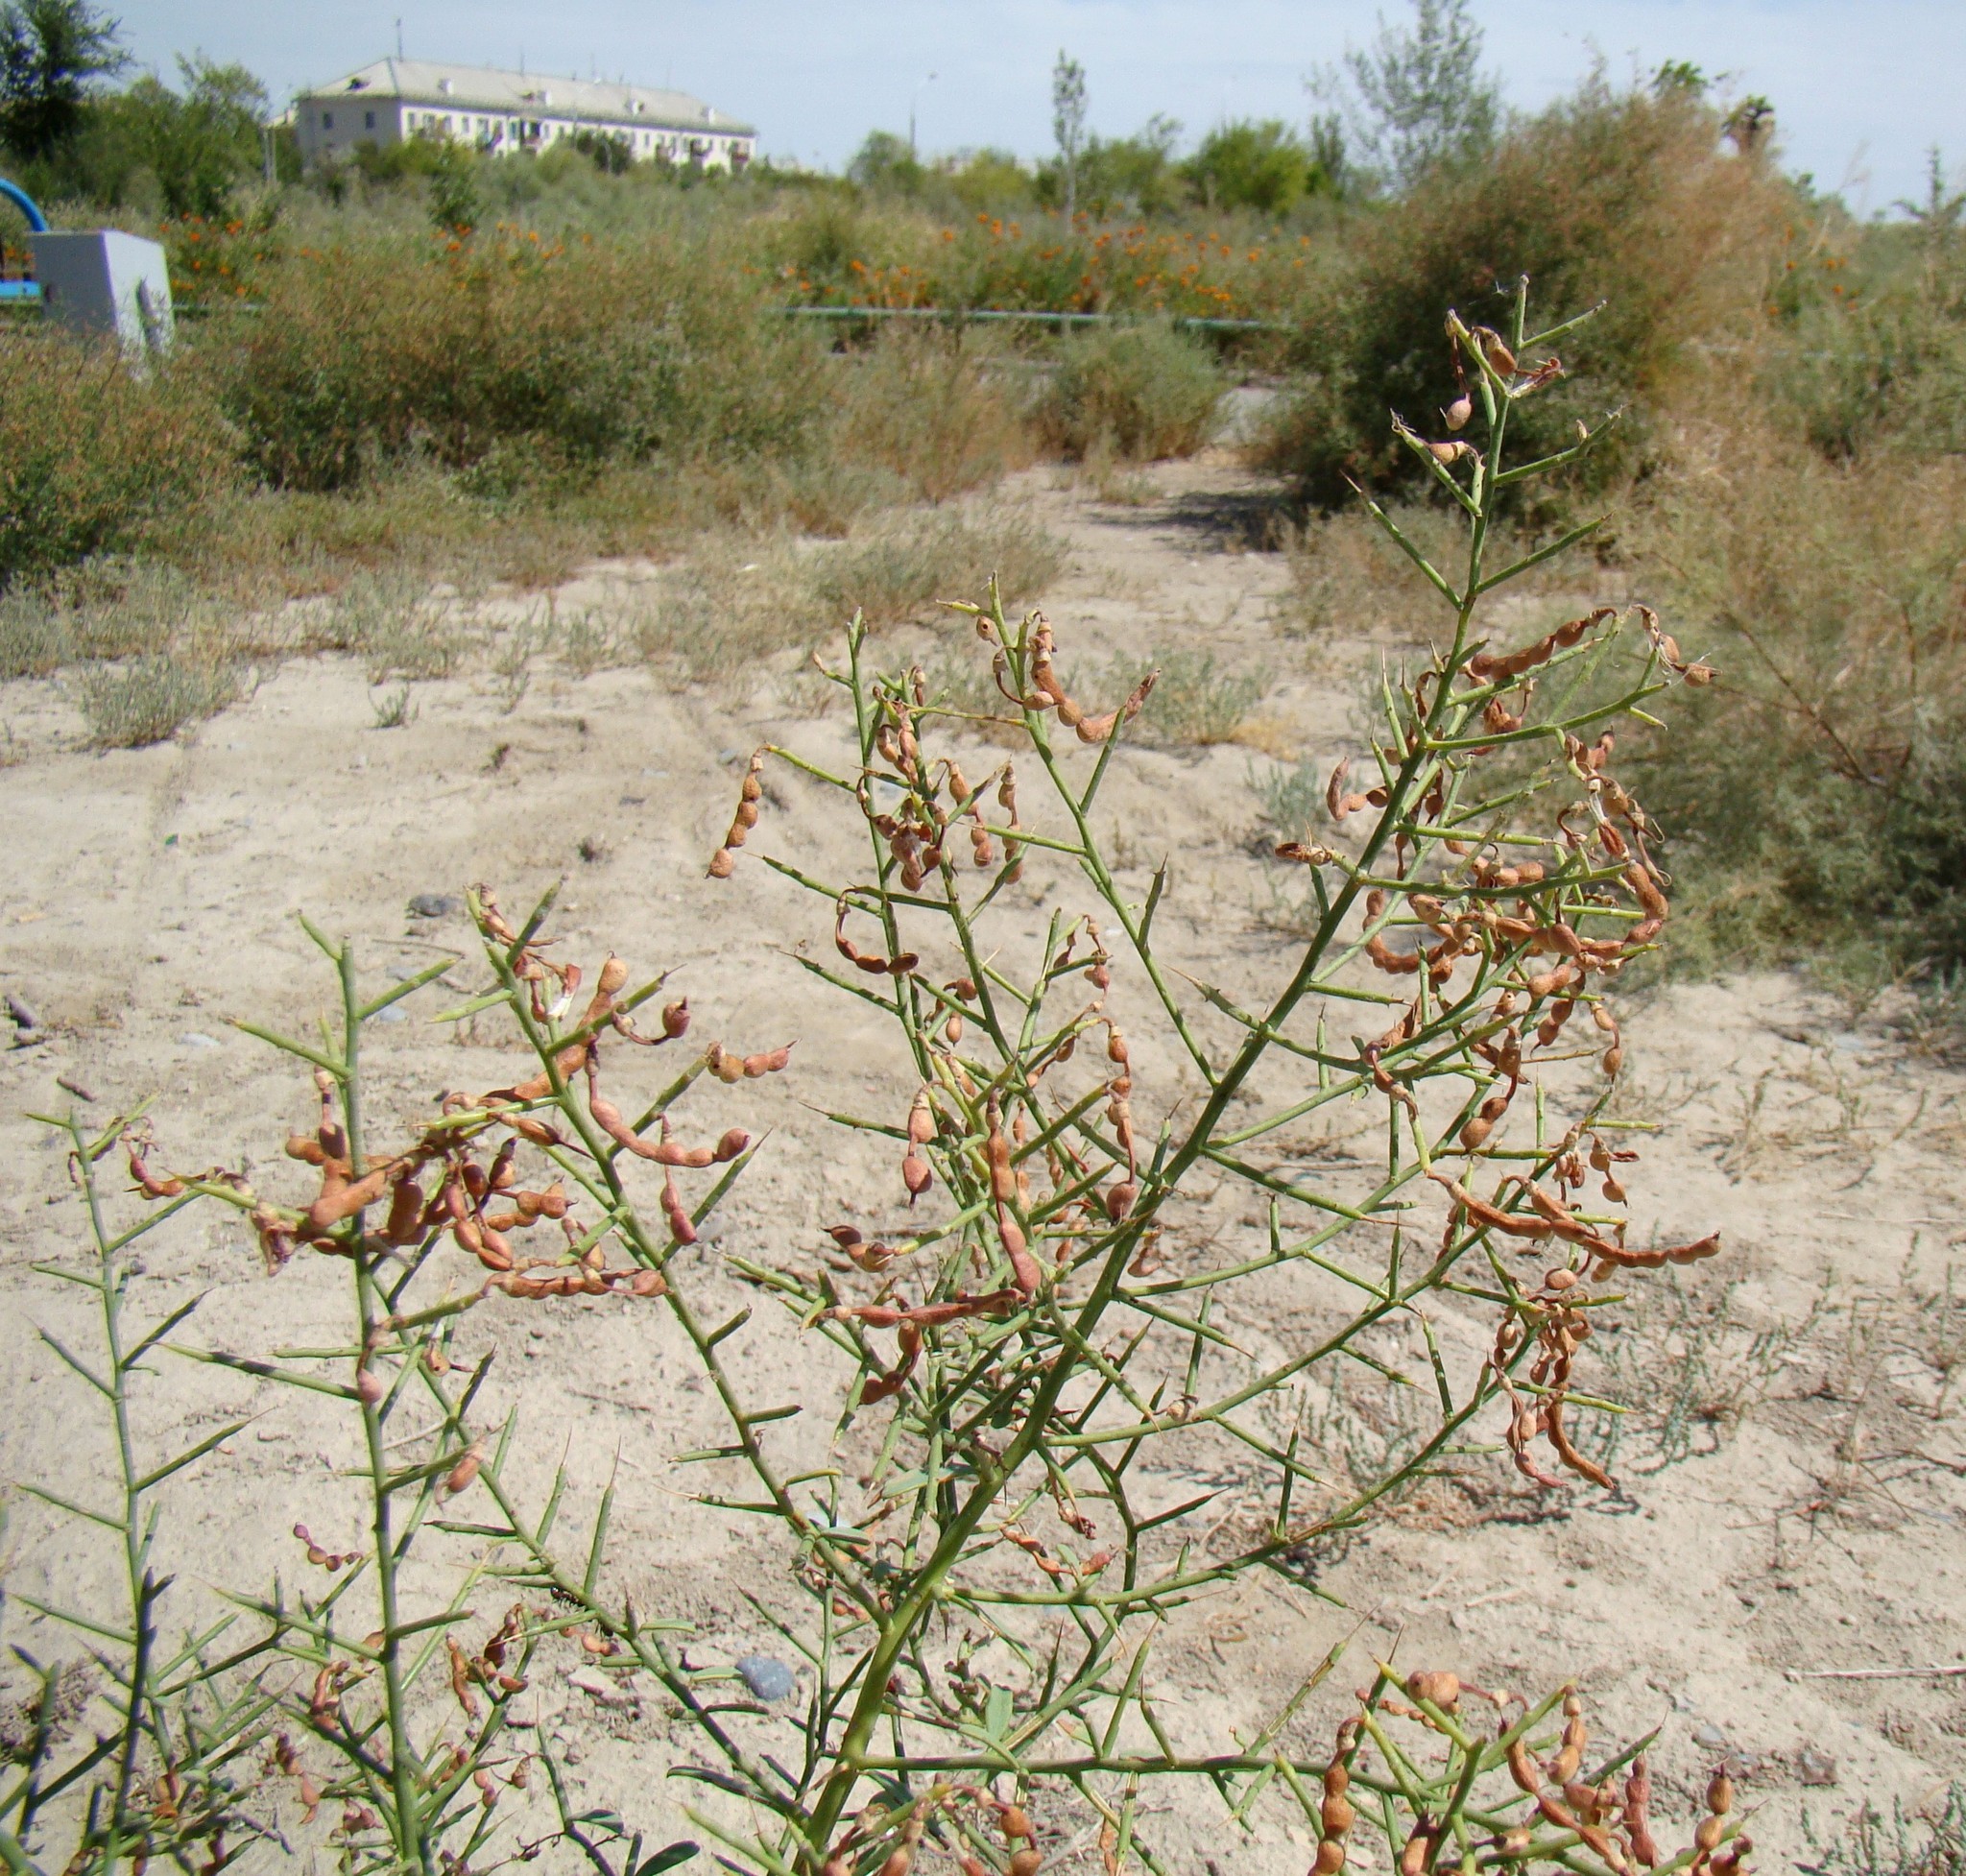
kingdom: Plantae
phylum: Tracheophyta
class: Magnoliopsida
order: Fabales
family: Fabaceae
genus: Alhagi
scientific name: Alhagi pseudalhagi
